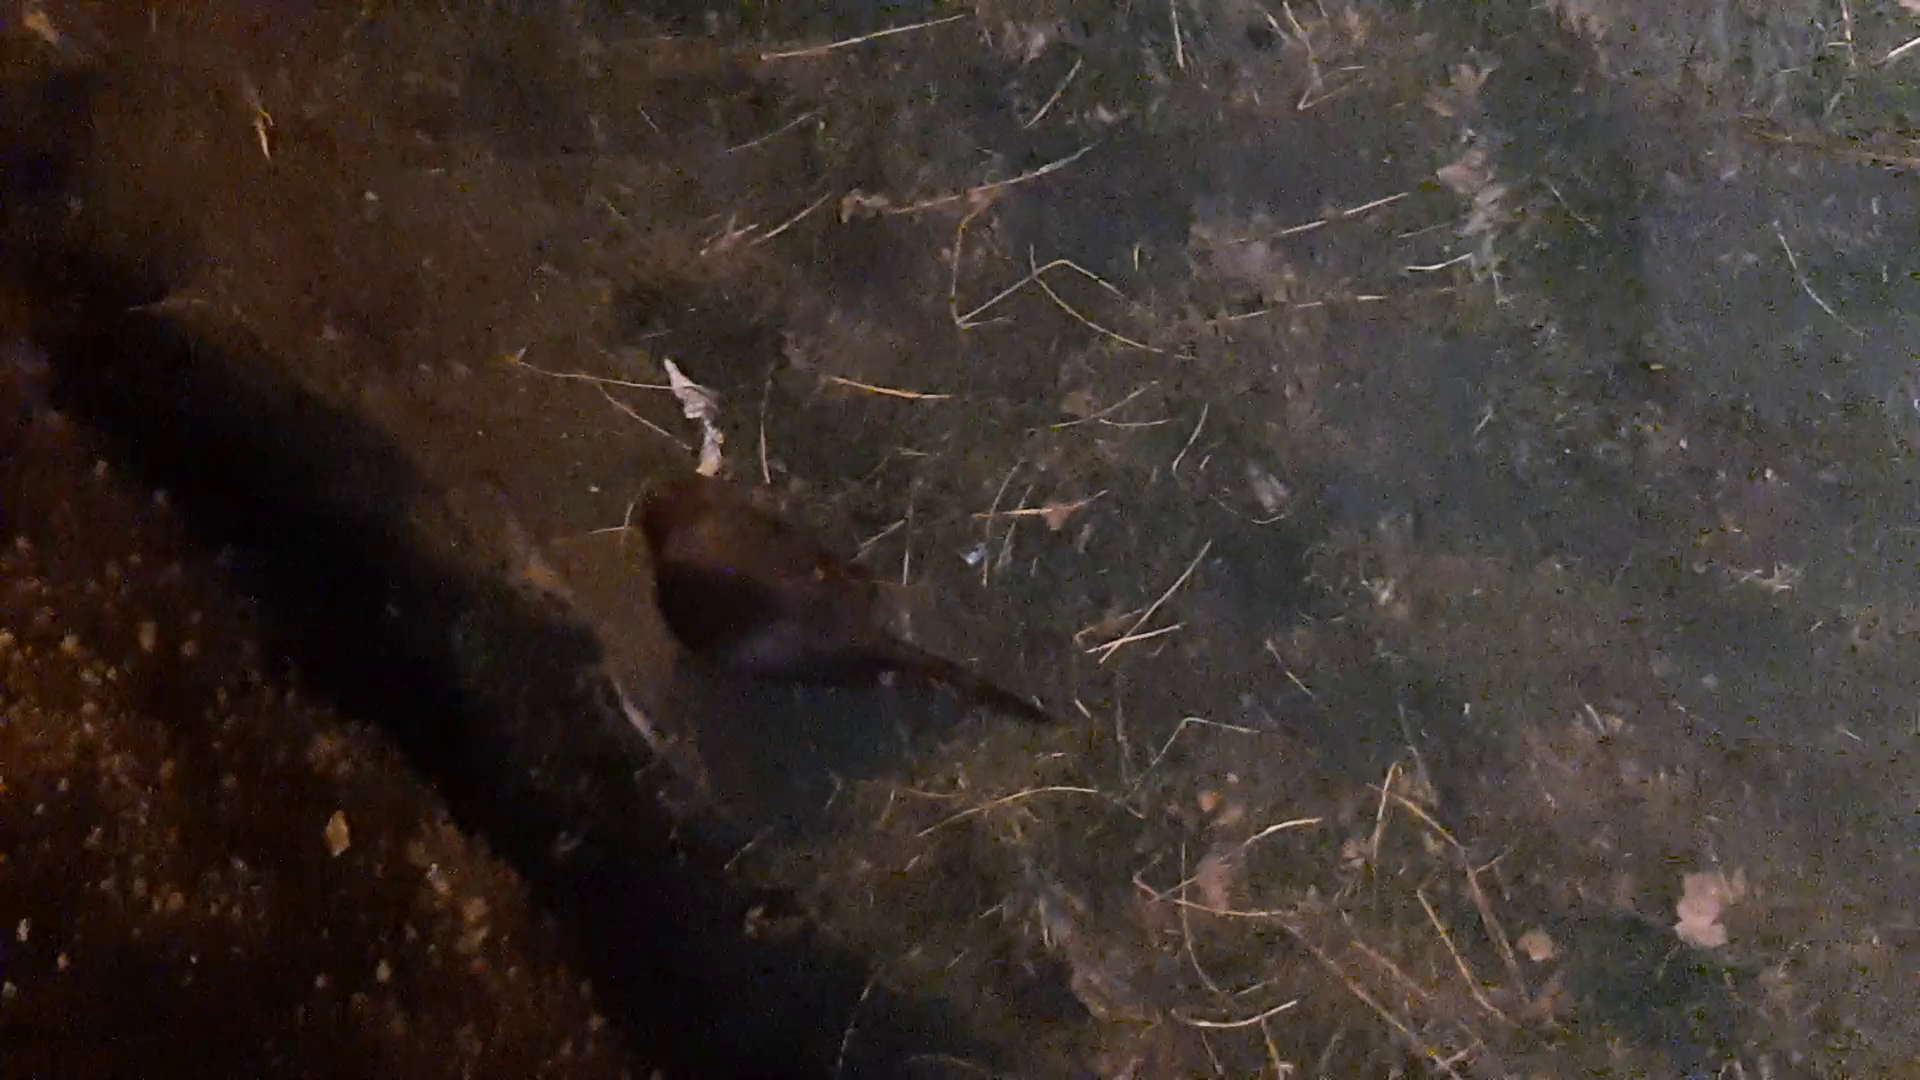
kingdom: Animalia
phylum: Chordata
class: Mammalia
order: Rodentia
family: Myocastoridae
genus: Myocastor
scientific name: Myocastor coypus
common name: Coypu
